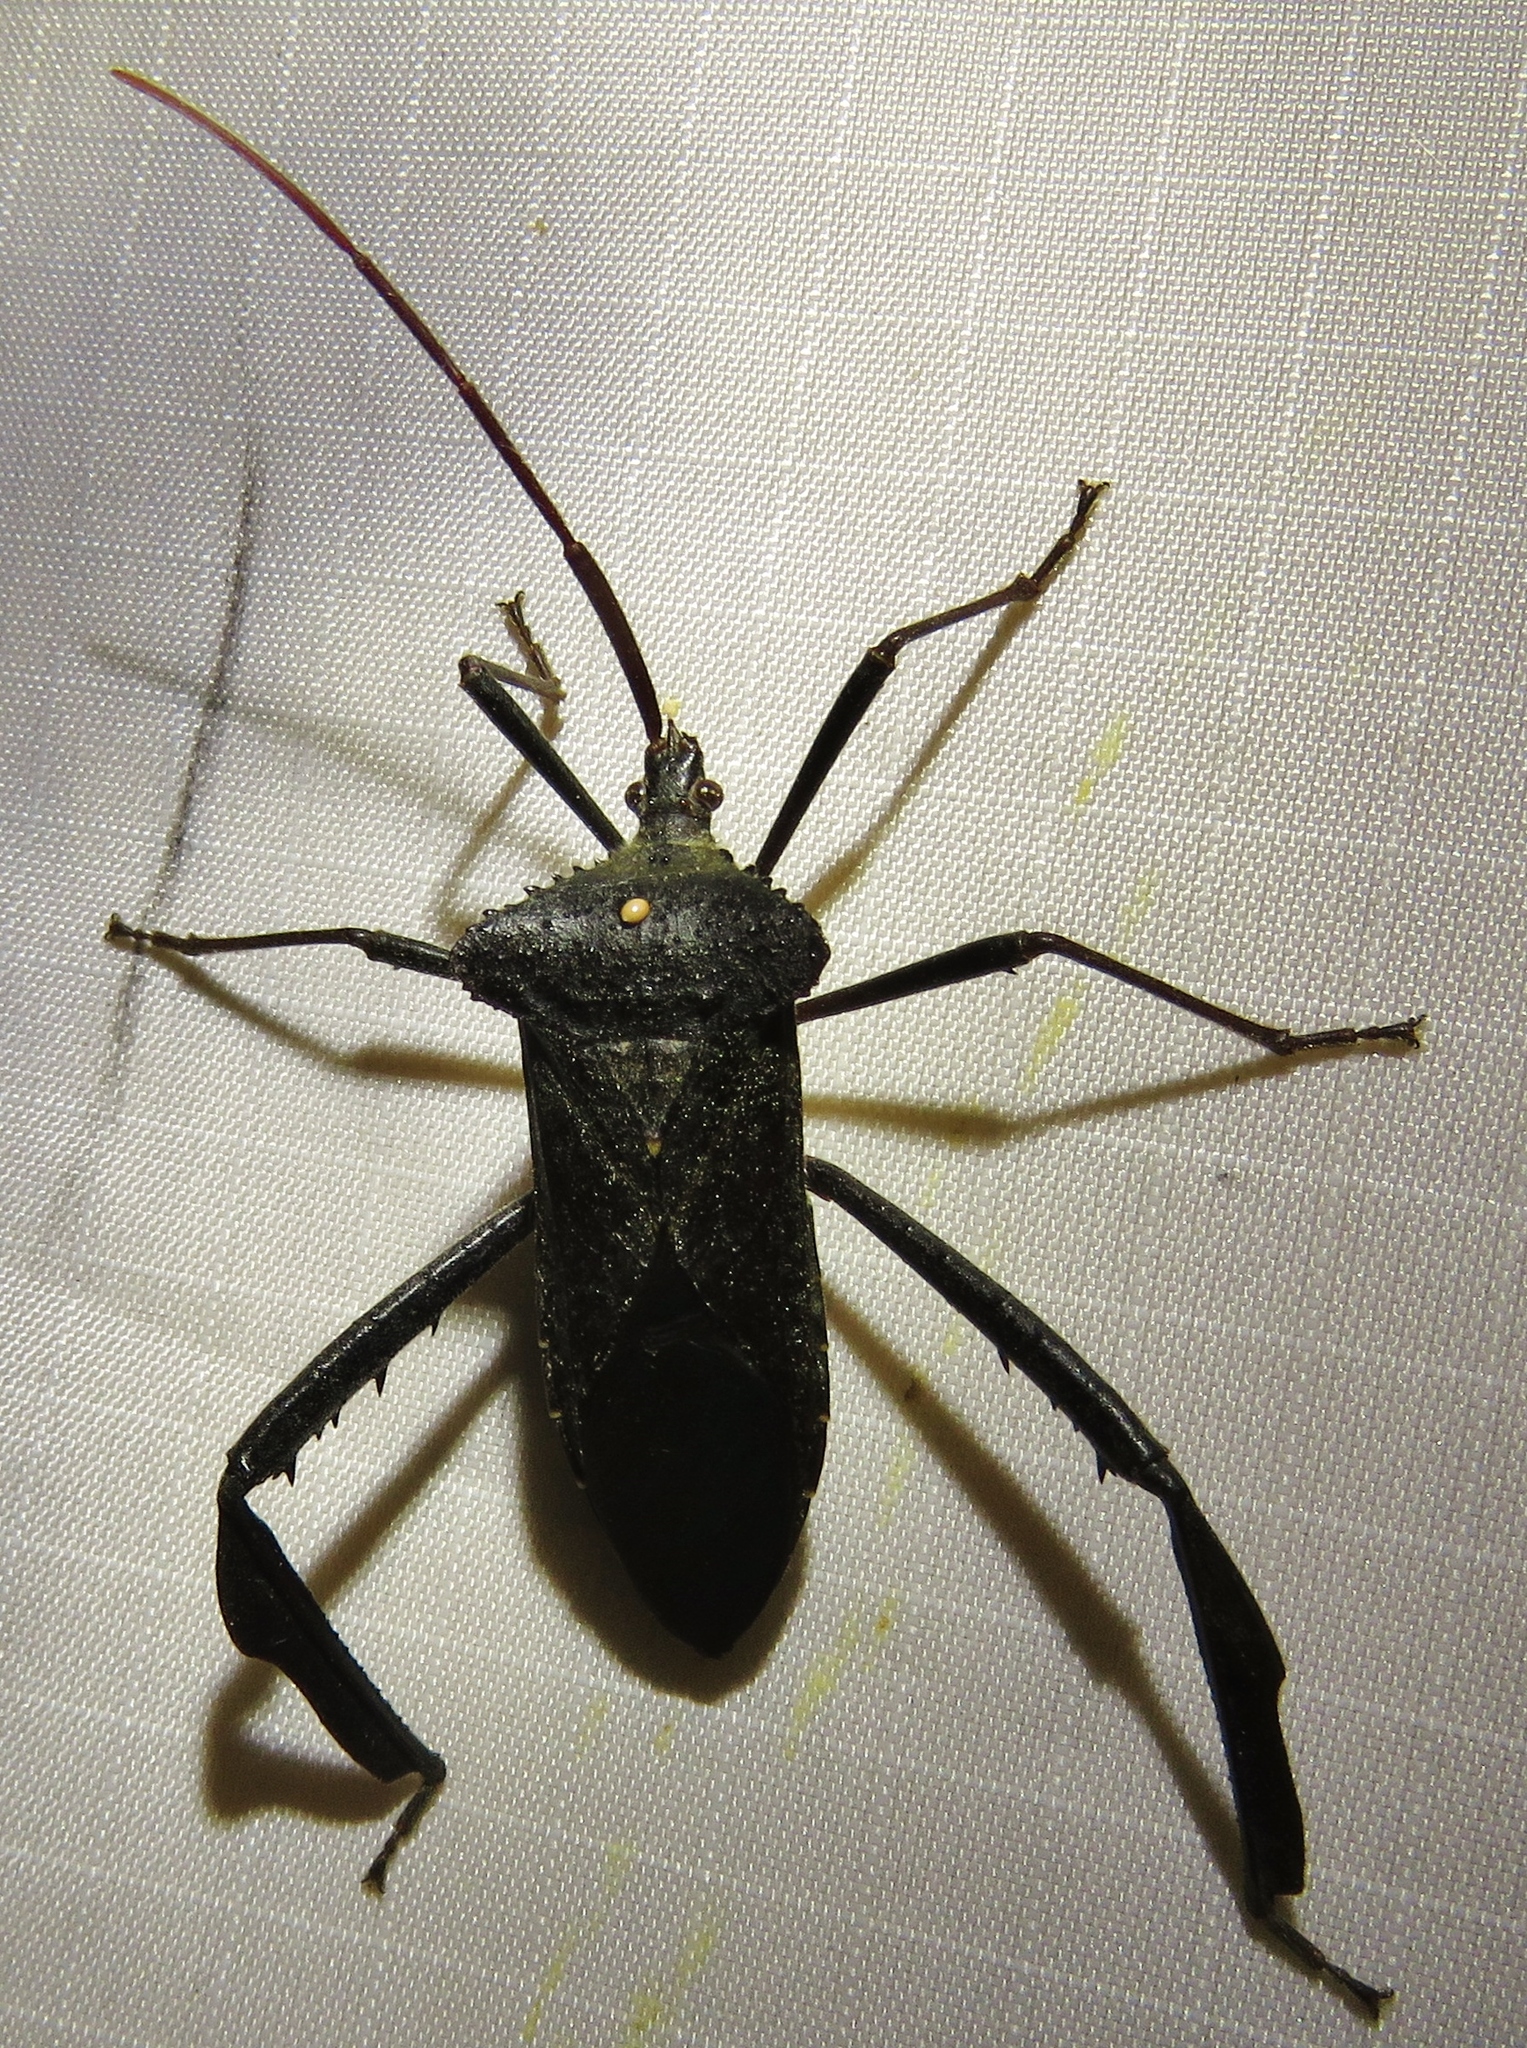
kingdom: Animalia
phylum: Arthropoda
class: Insecta
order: Hemiptera
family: Coreidae
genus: Acanthocephala
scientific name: Acanthocephala declivis
